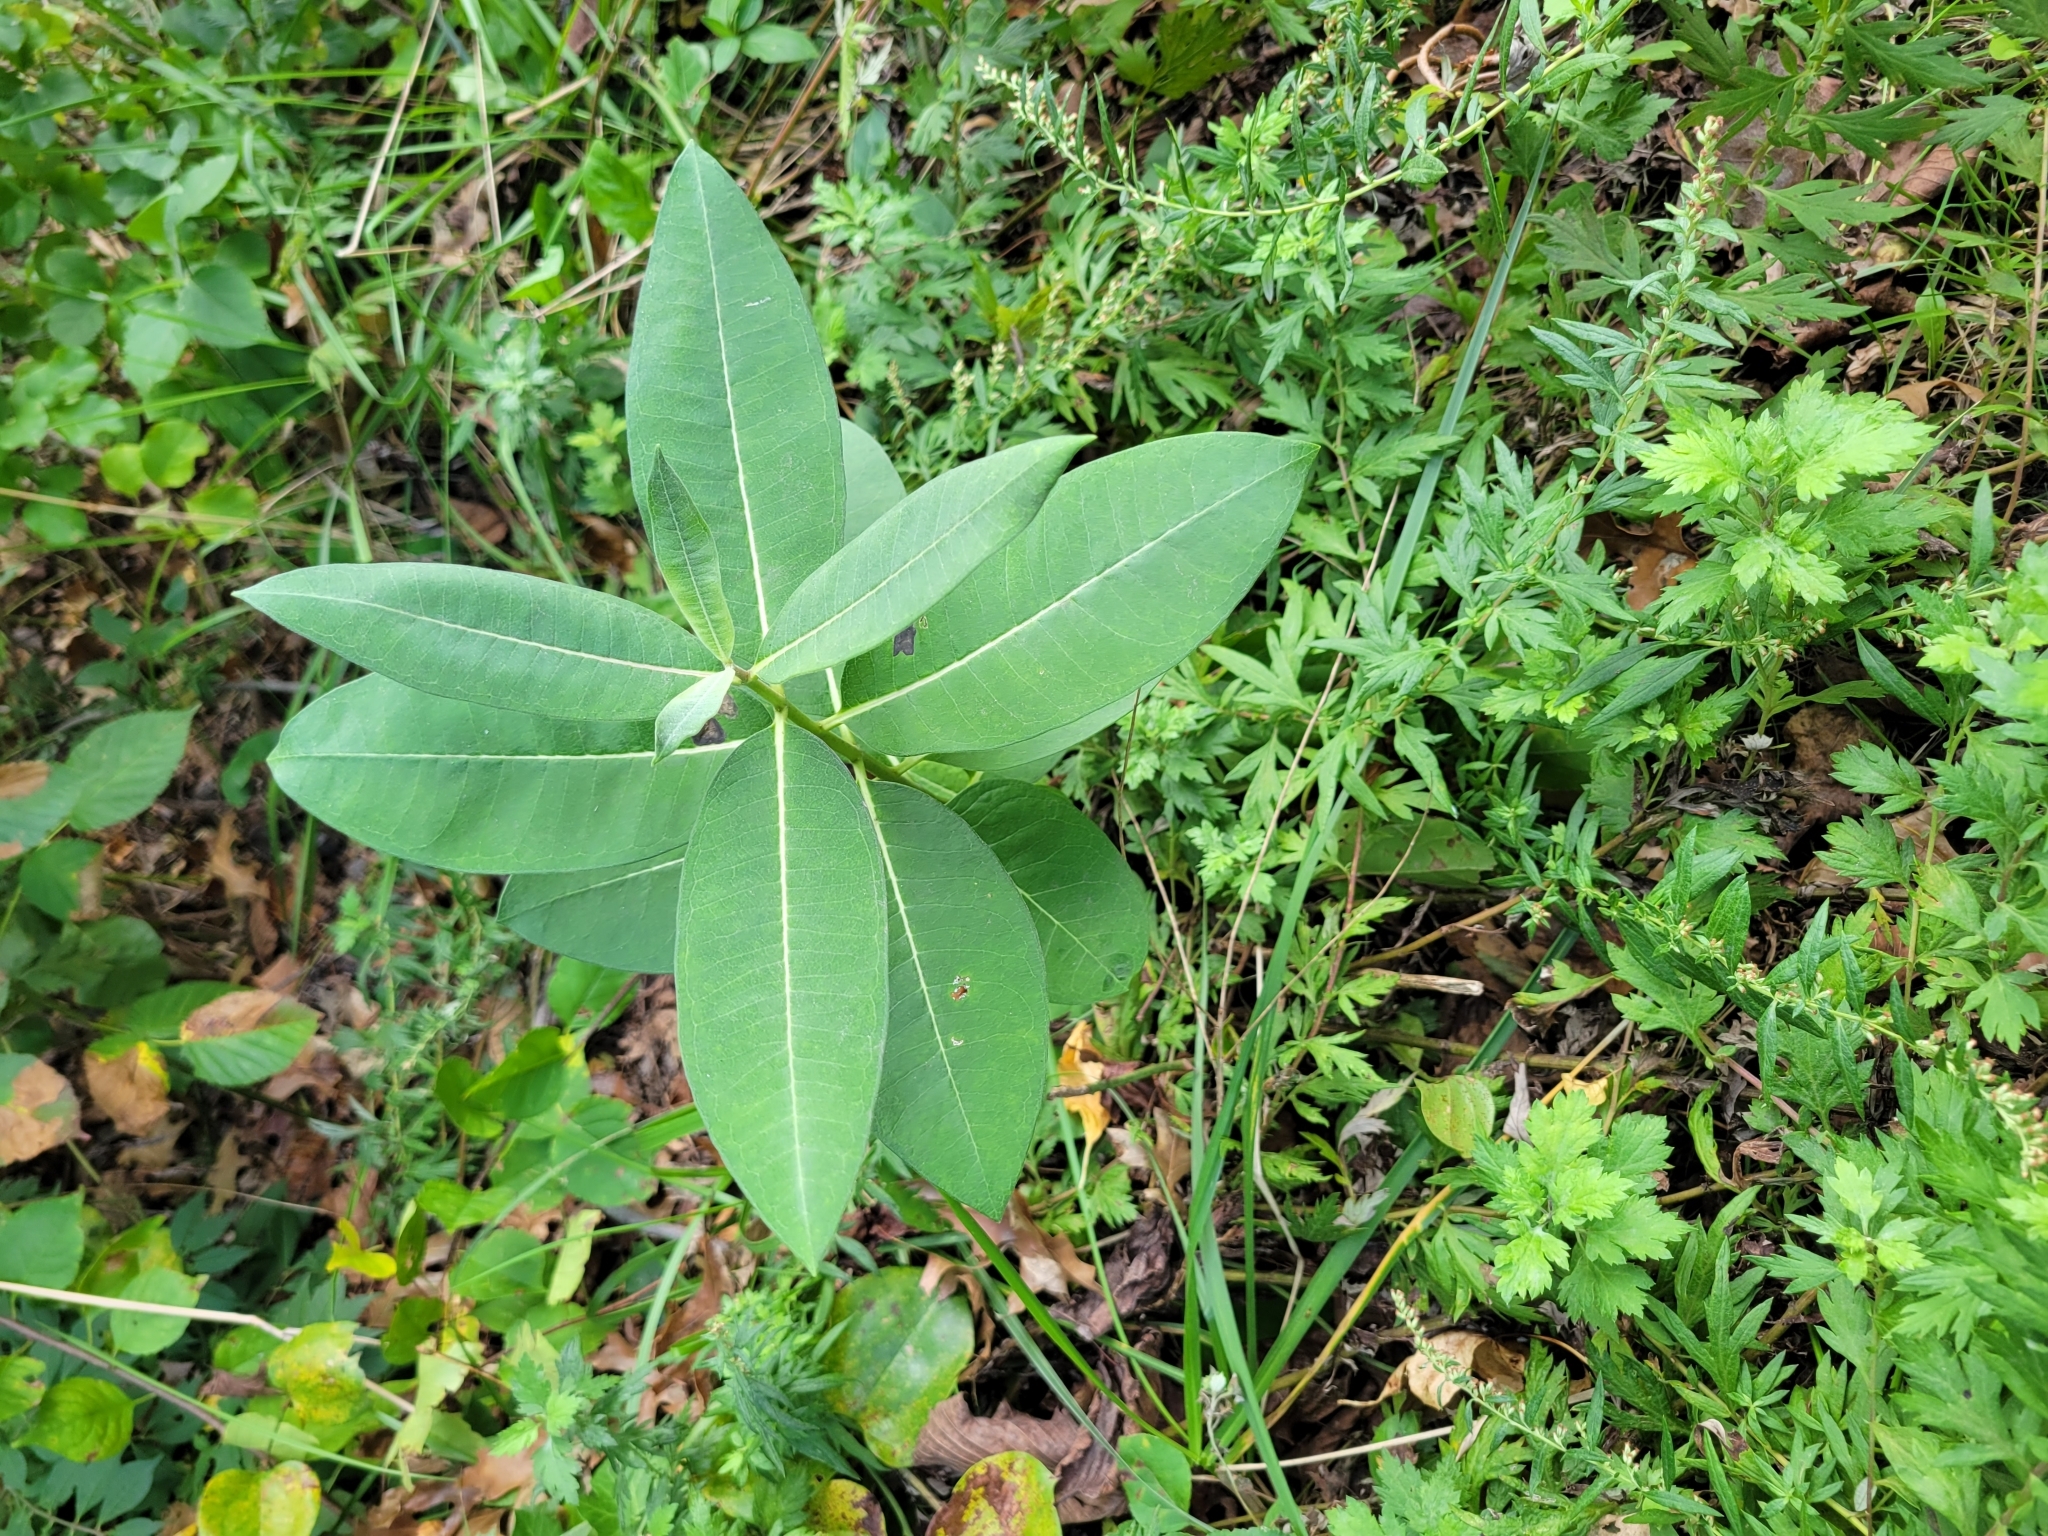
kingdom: Plantae
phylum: Tracheophyta
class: Magnoliopsida
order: Gentianales
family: Apocynaceae
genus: Asclepias
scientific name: Asclepias syriaca
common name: Common milkweed
